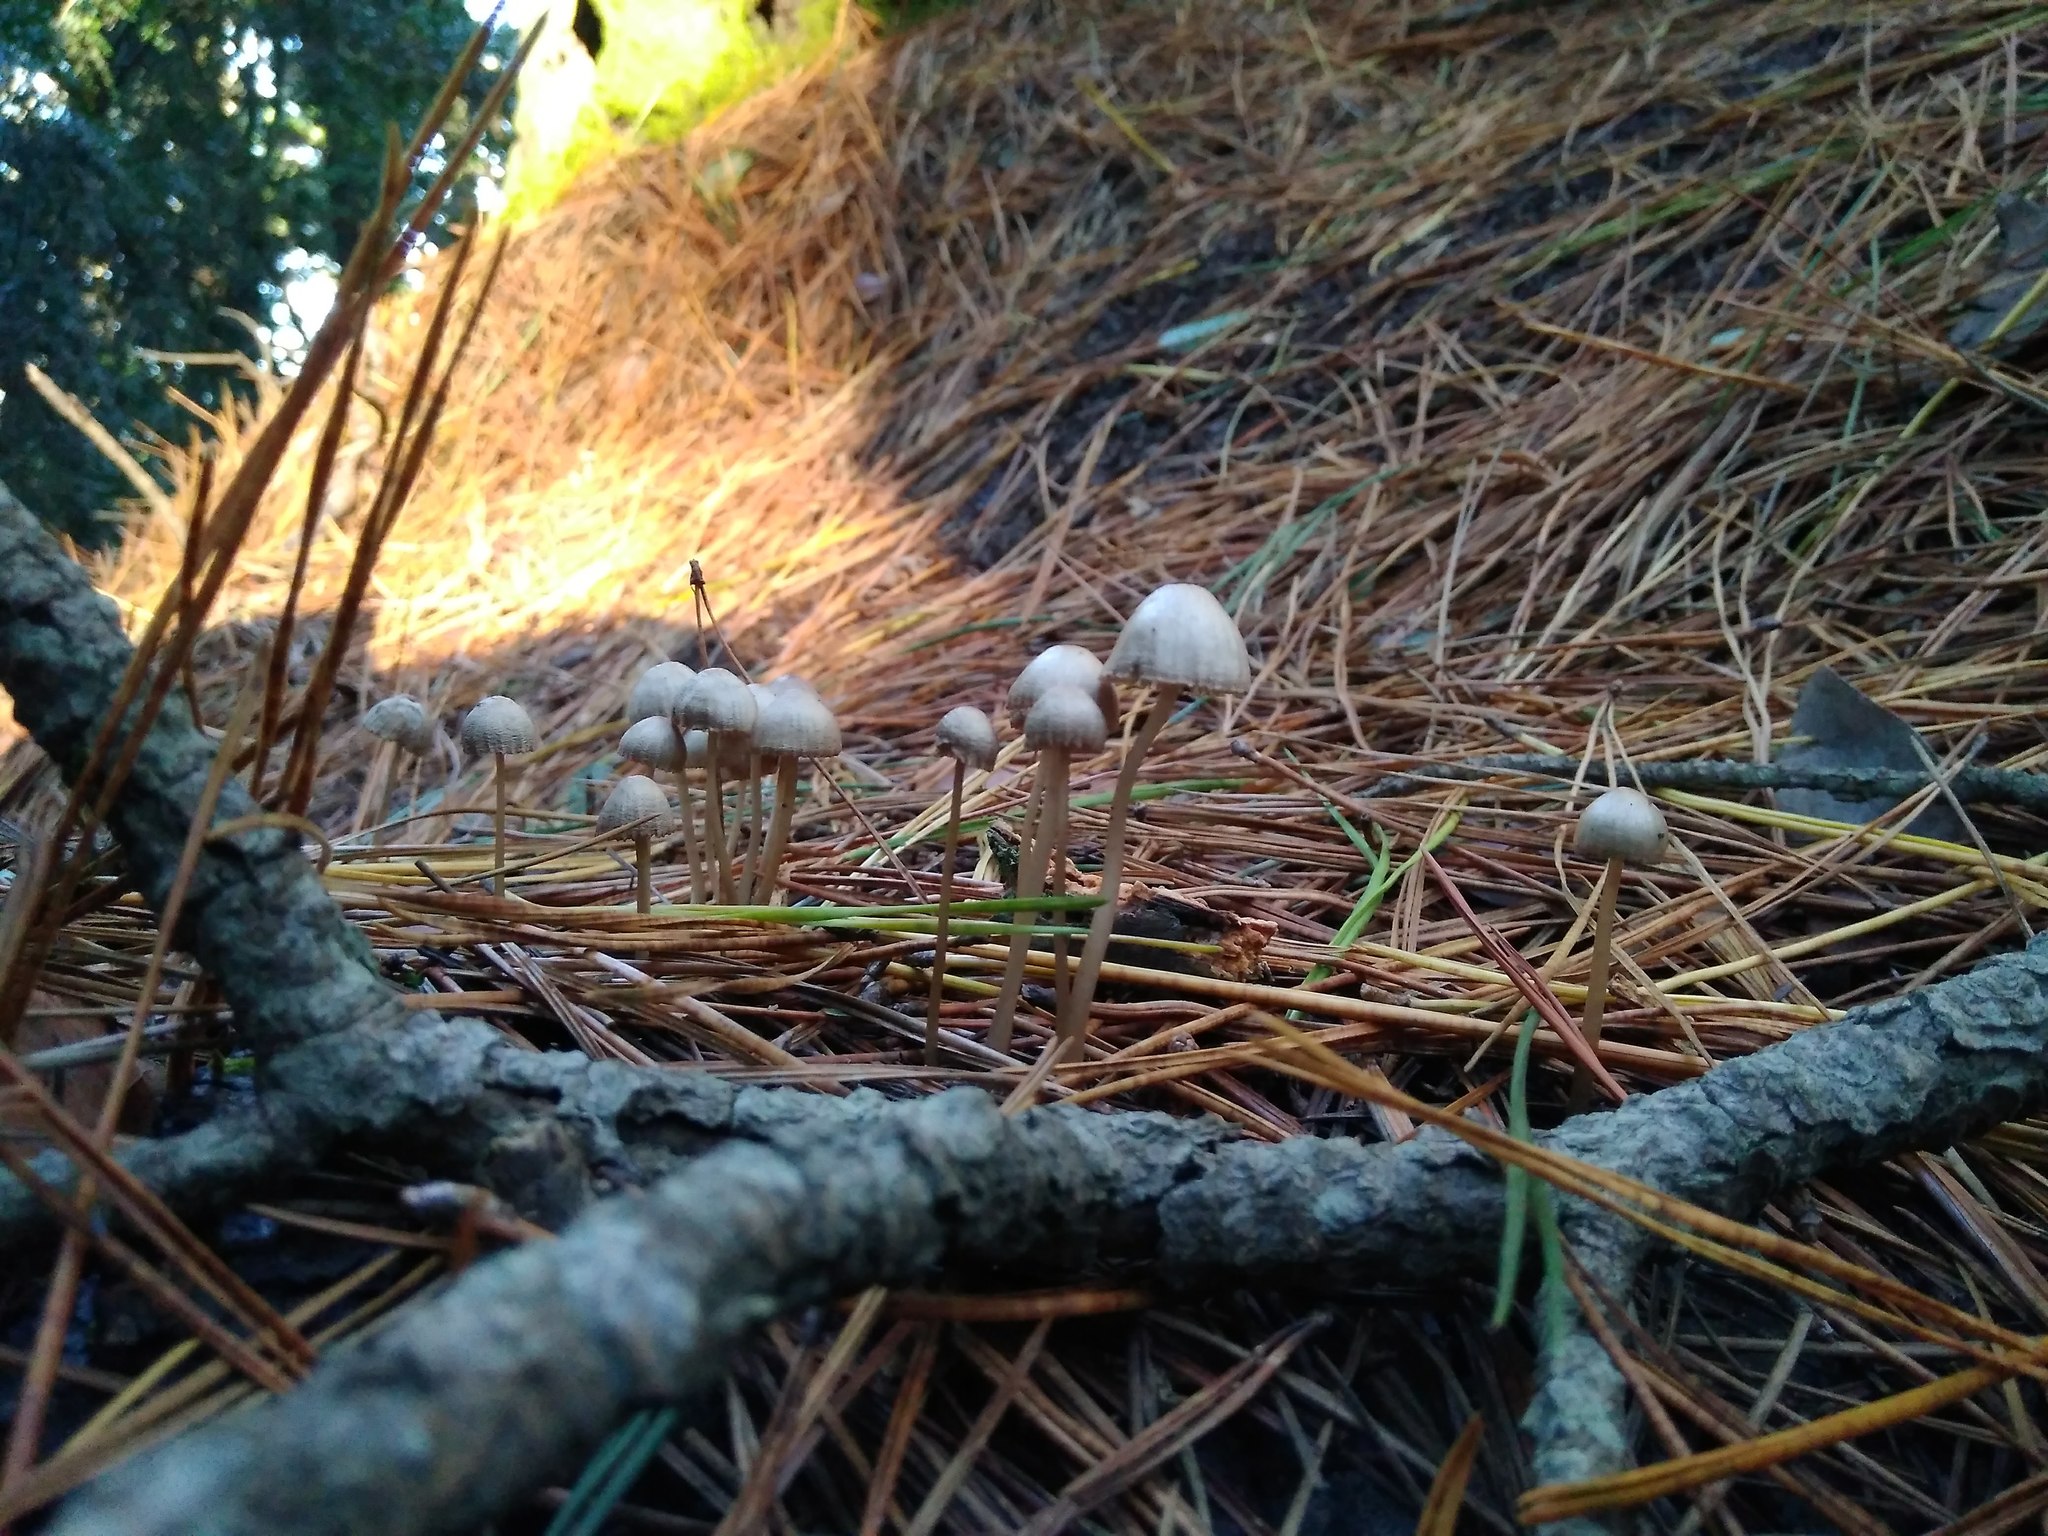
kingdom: Fungi
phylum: Basidiomycota
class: Agaricomycetes
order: Agaricales
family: Mycenaceae
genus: Mycena
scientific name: Mycena leptocephala
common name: Nitrous bonnet
